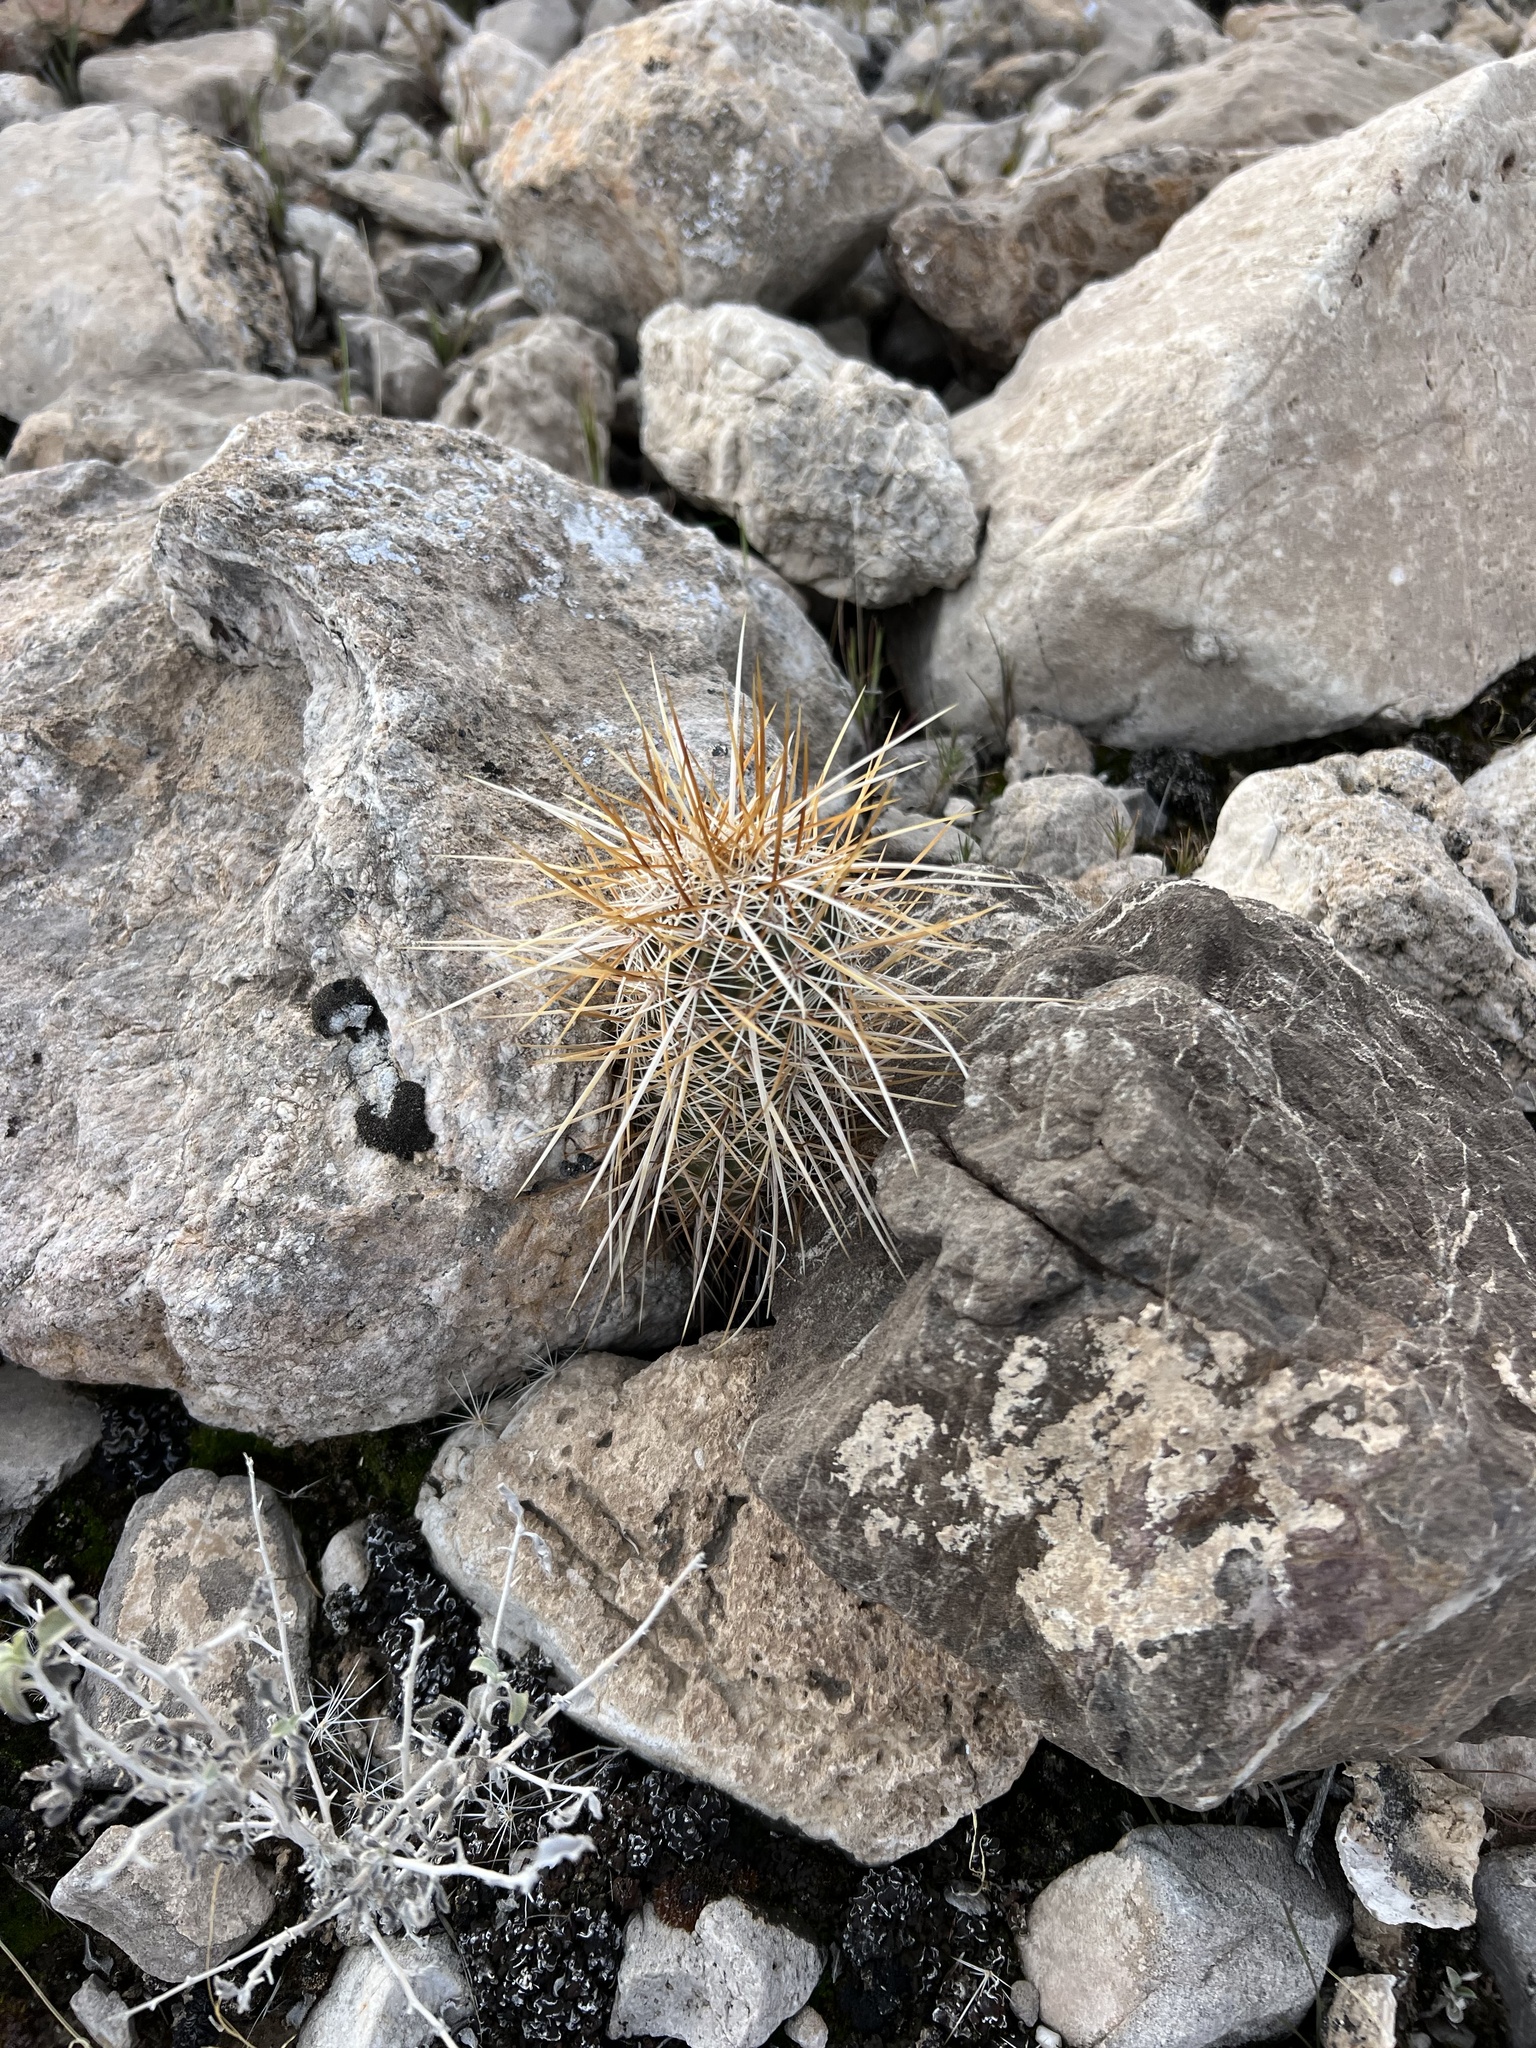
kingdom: Plantae
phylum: Tracheophyta
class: Magnoliopsida
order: Caryophyllales
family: Cactaceae
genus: Echinocereus
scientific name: Echinocereus engelmannii
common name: Engelmann's hedgehog cactus
